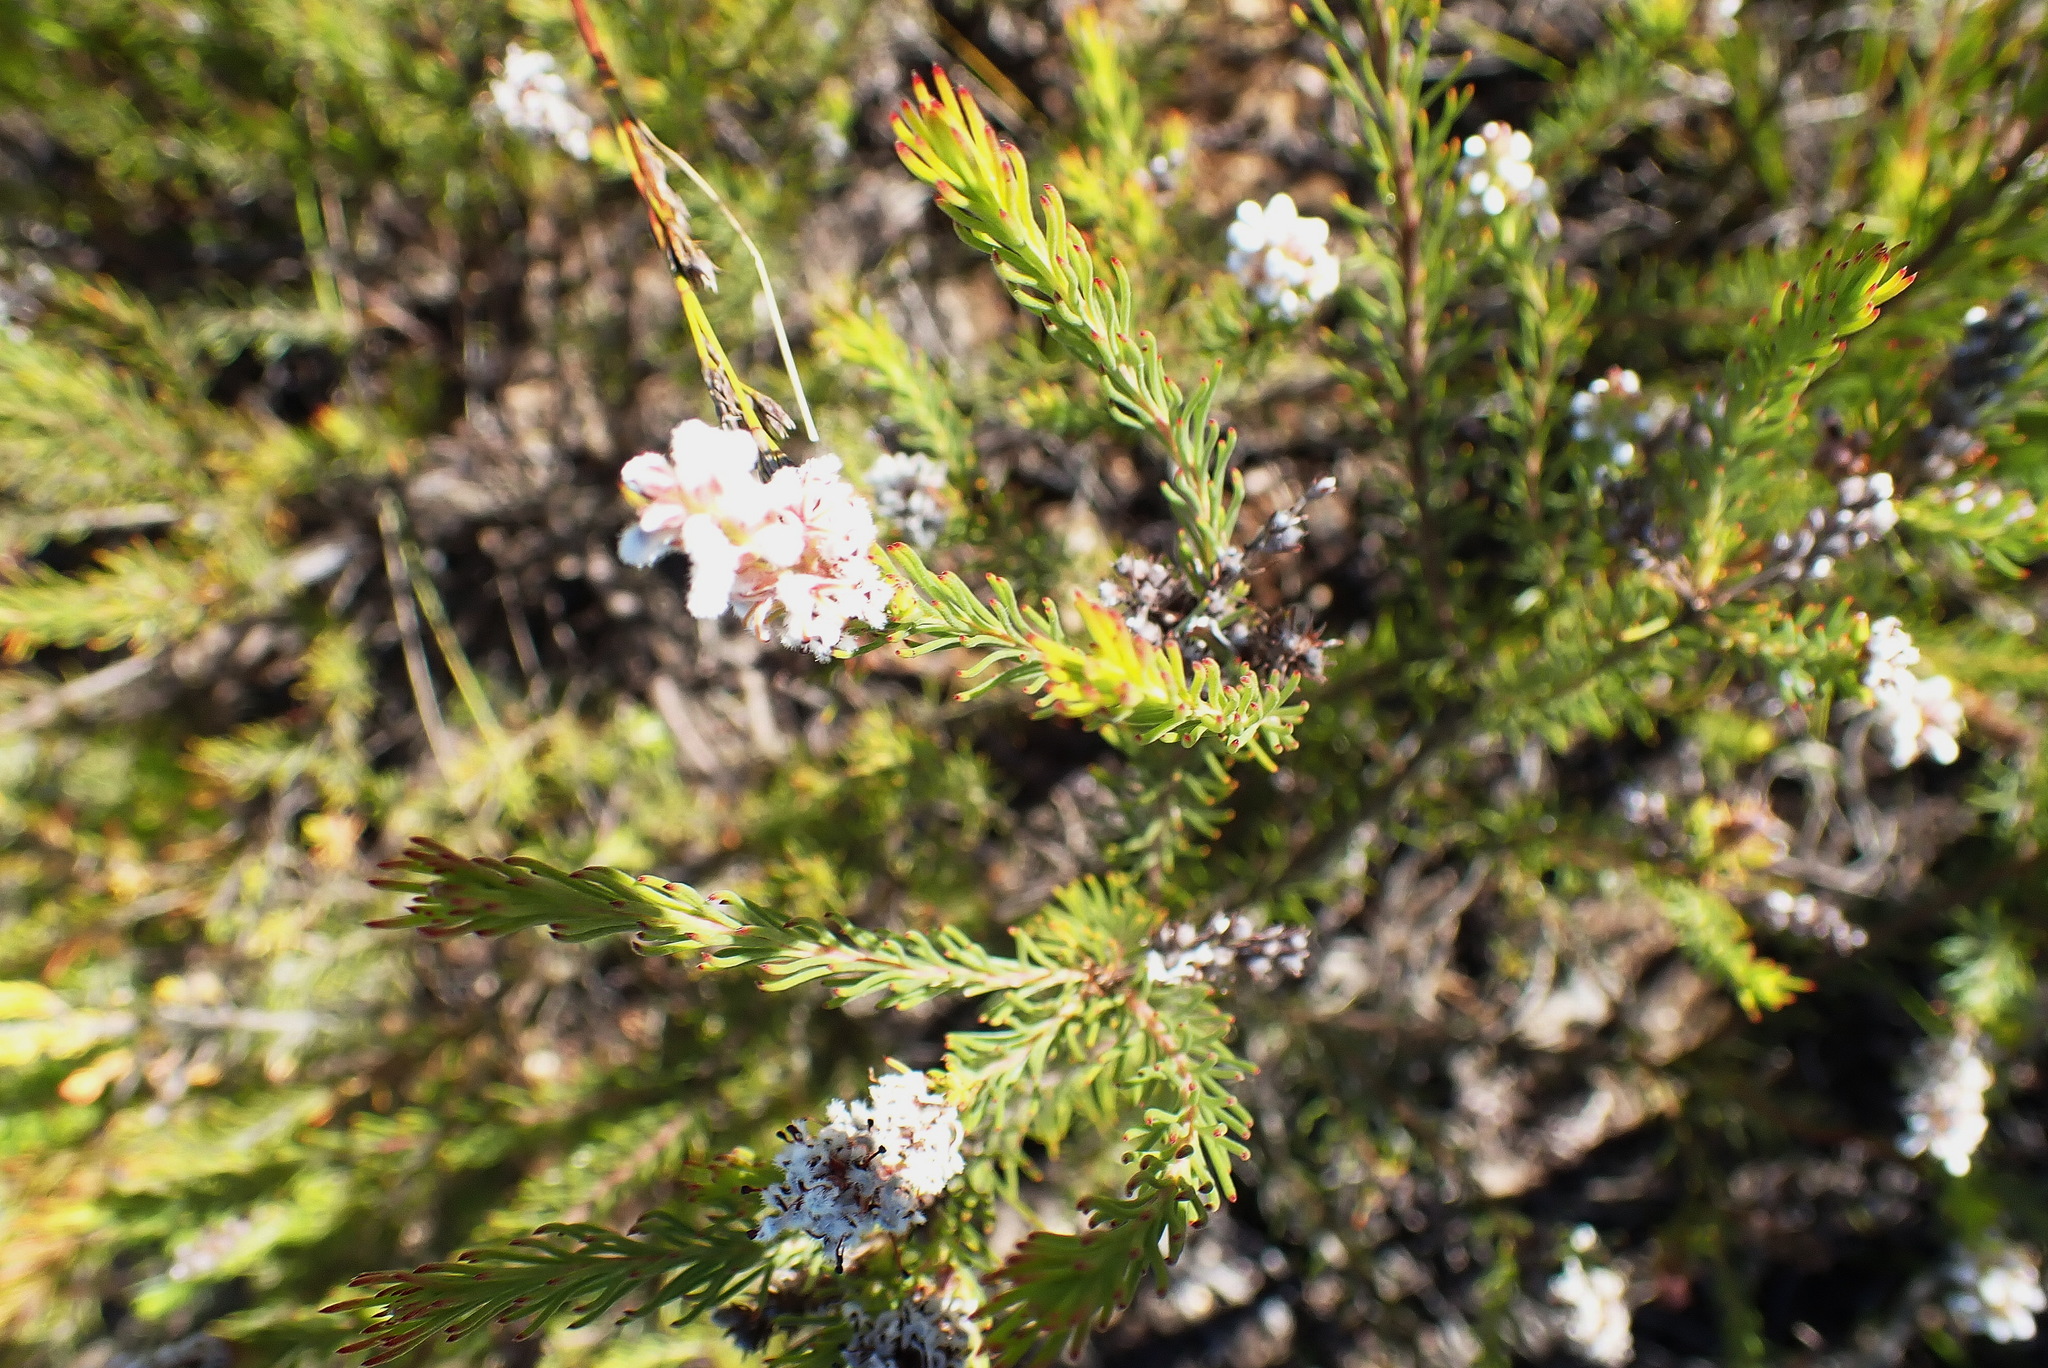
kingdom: Plantae
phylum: Tracheophyta
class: Magnoliopsida
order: Proteales
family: Proteaceae
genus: Spatalla
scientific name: Spatalla barbigera
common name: Fine-leaf spoon
